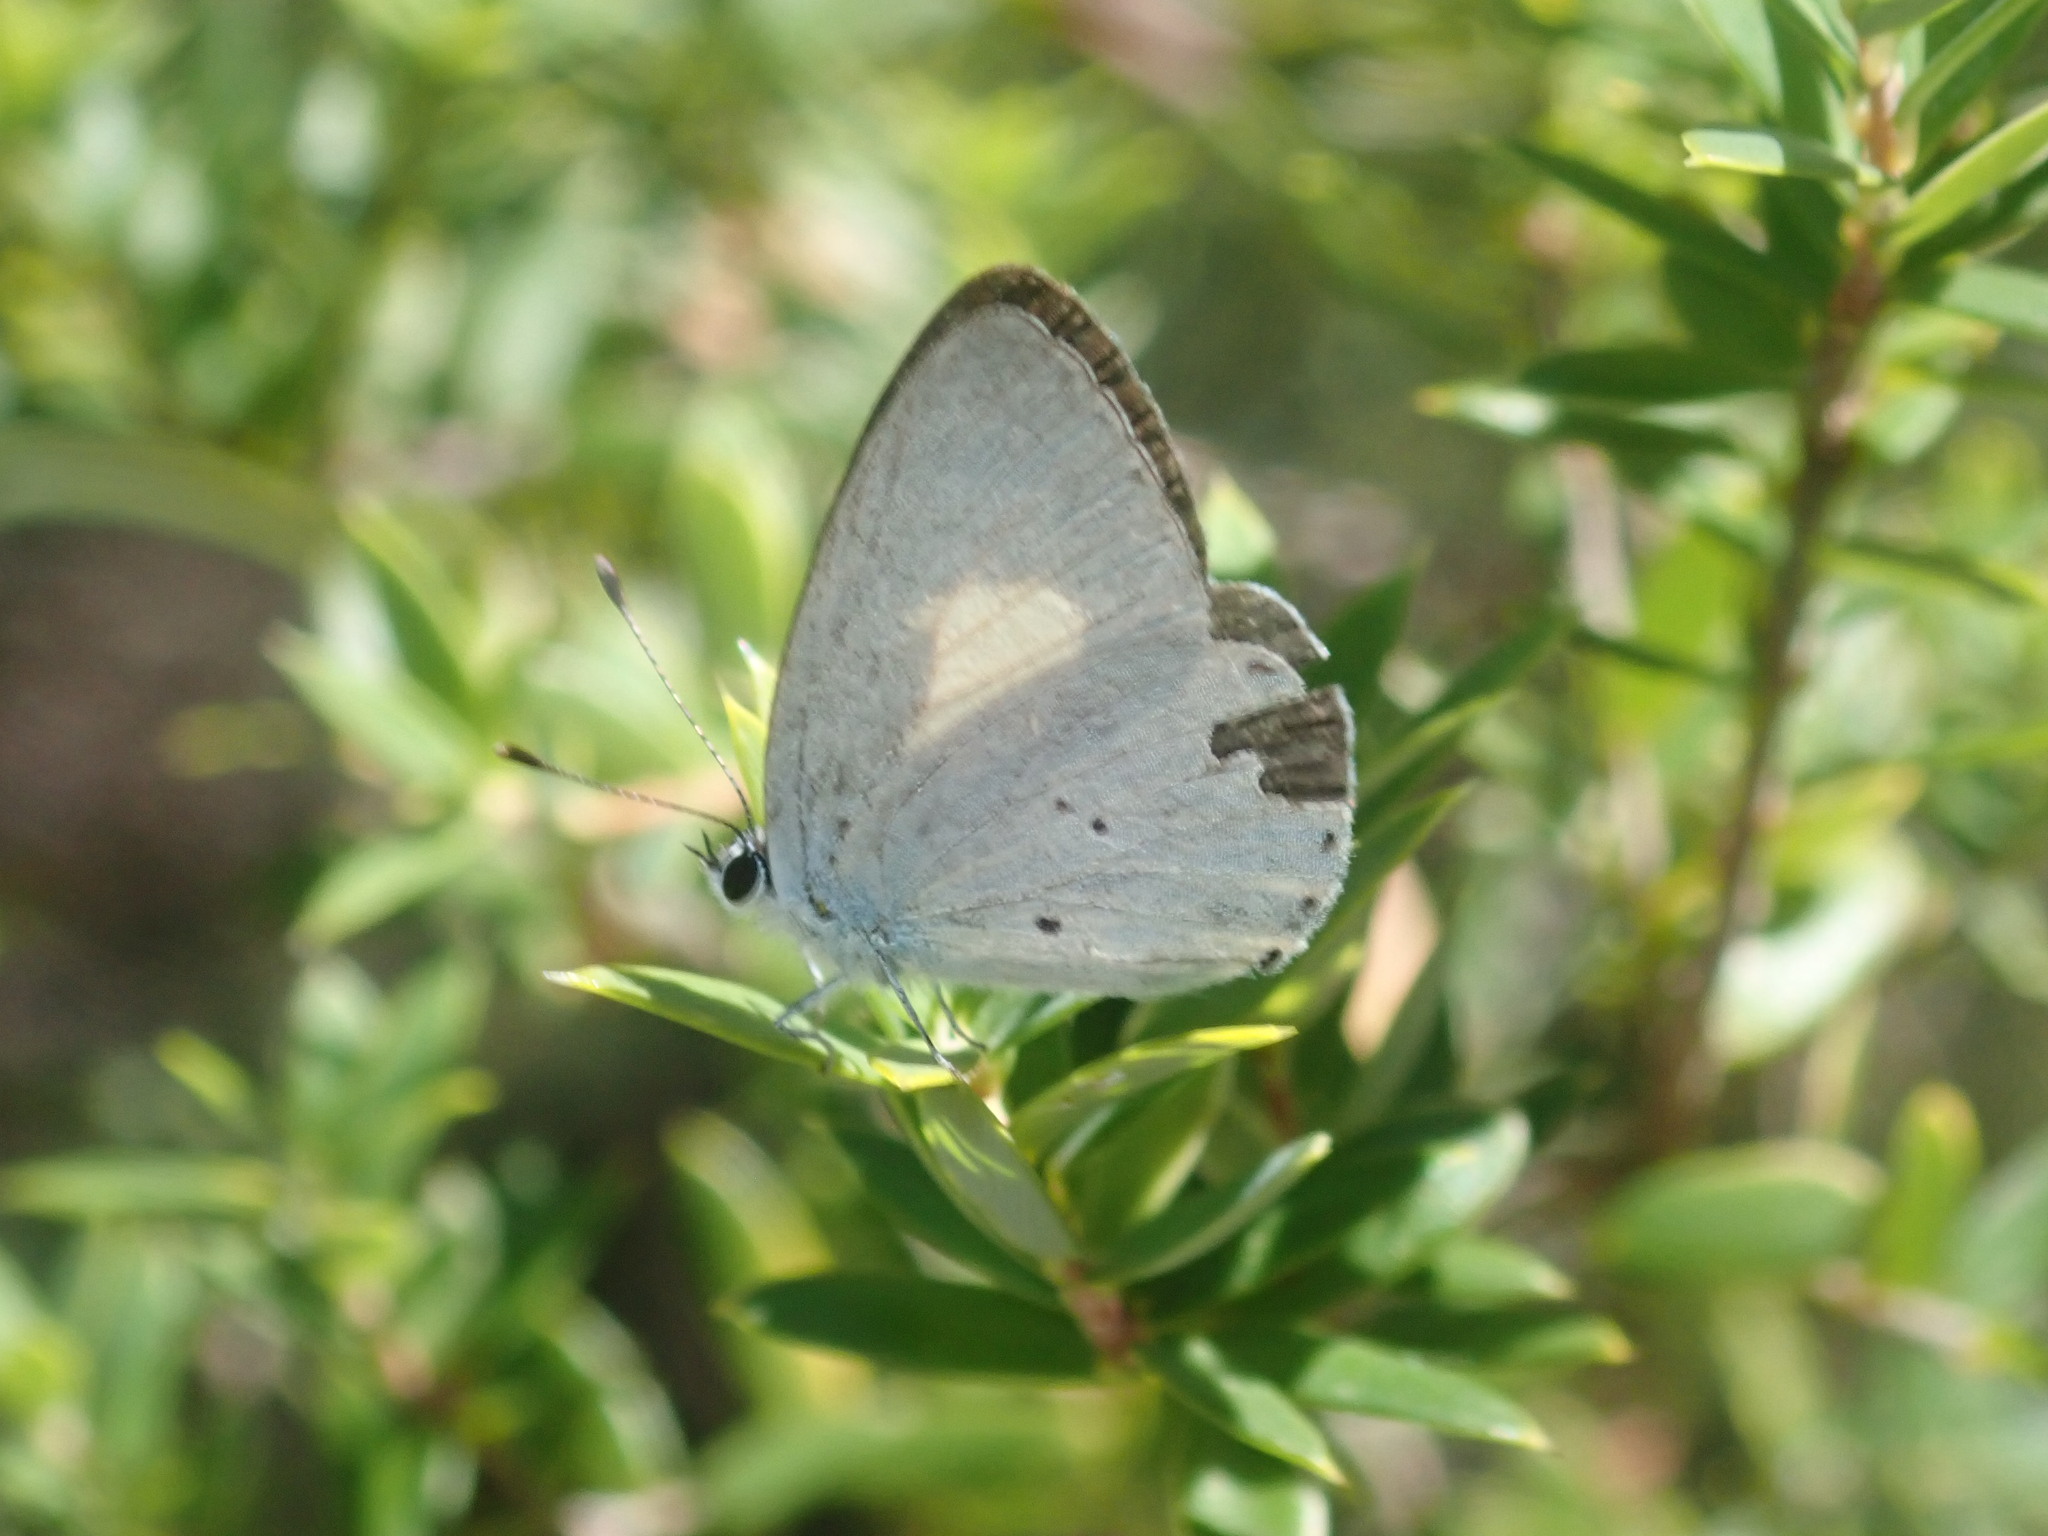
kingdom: Animalia
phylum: Arthropoda
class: Insecta
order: Lepidoptera
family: Lycaenidae
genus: Candalides
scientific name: Candalides xanthospilos
